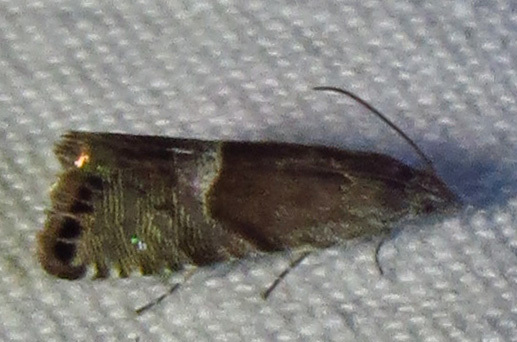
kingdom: Animalia
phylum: Arthropoda
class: Insecta
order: Lepidoptera
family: Tortricidae
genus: Sereda
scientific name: Sereda tautana
